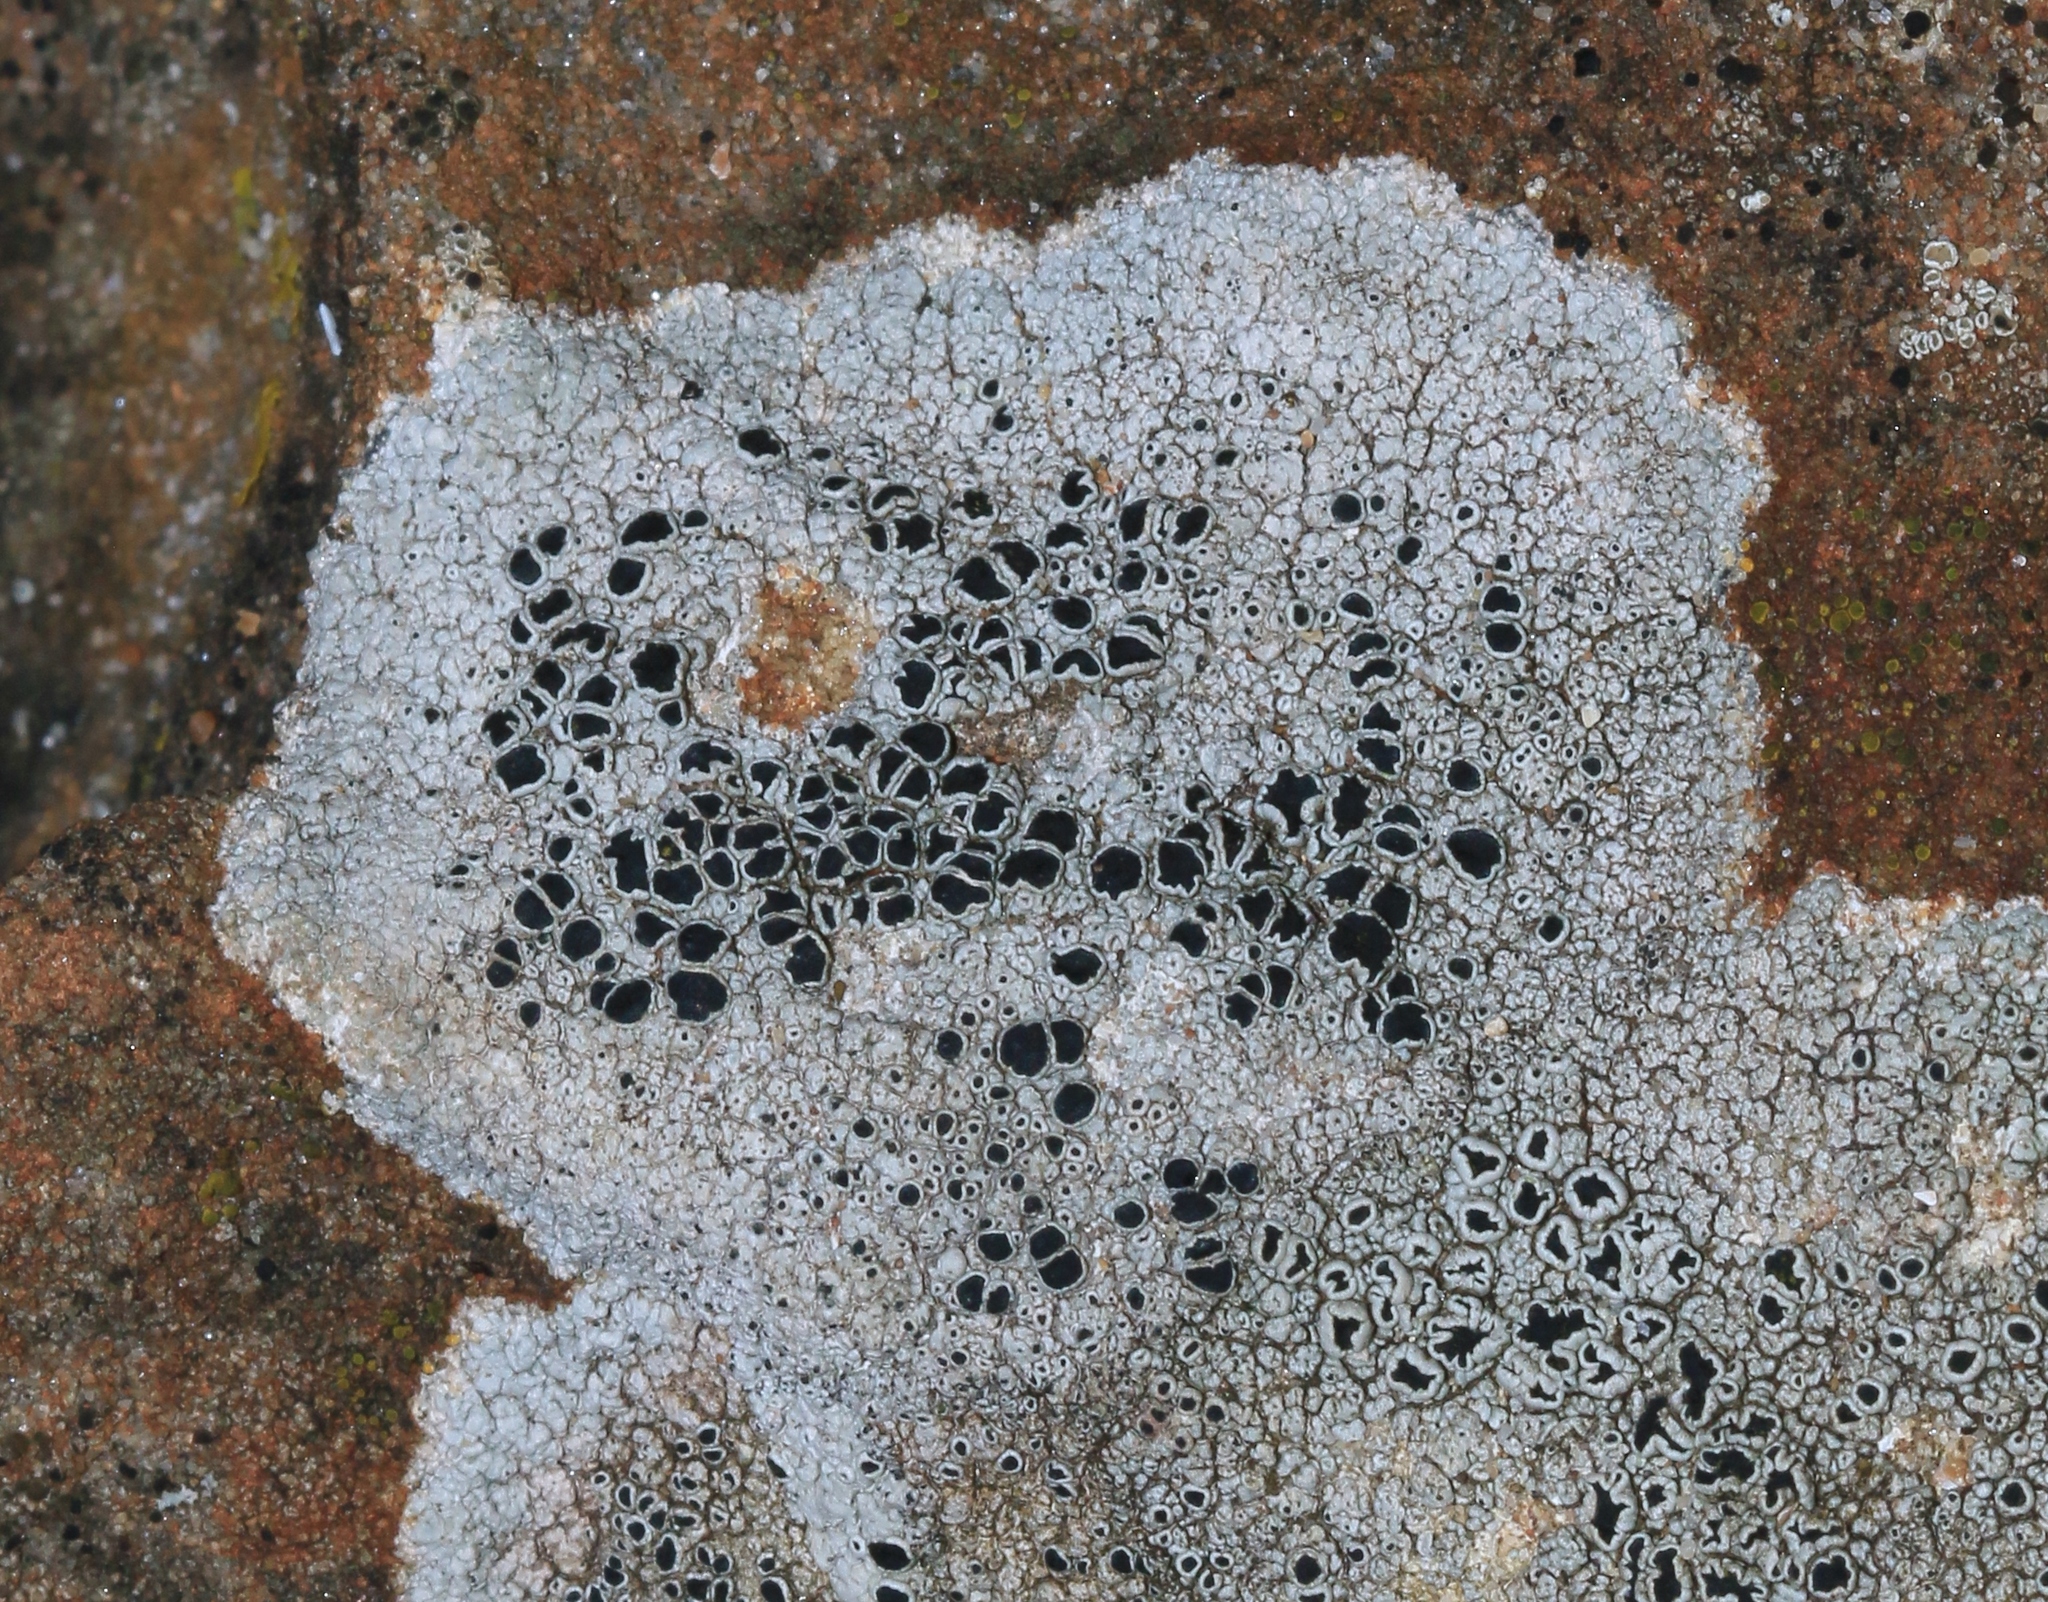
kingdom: Fungi
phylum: Ascomycota
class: Lecanoromycetes
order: Lecanorales
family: Tephromelataceae
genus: Tephromela
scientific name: Tephromela atra
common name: Black shields
